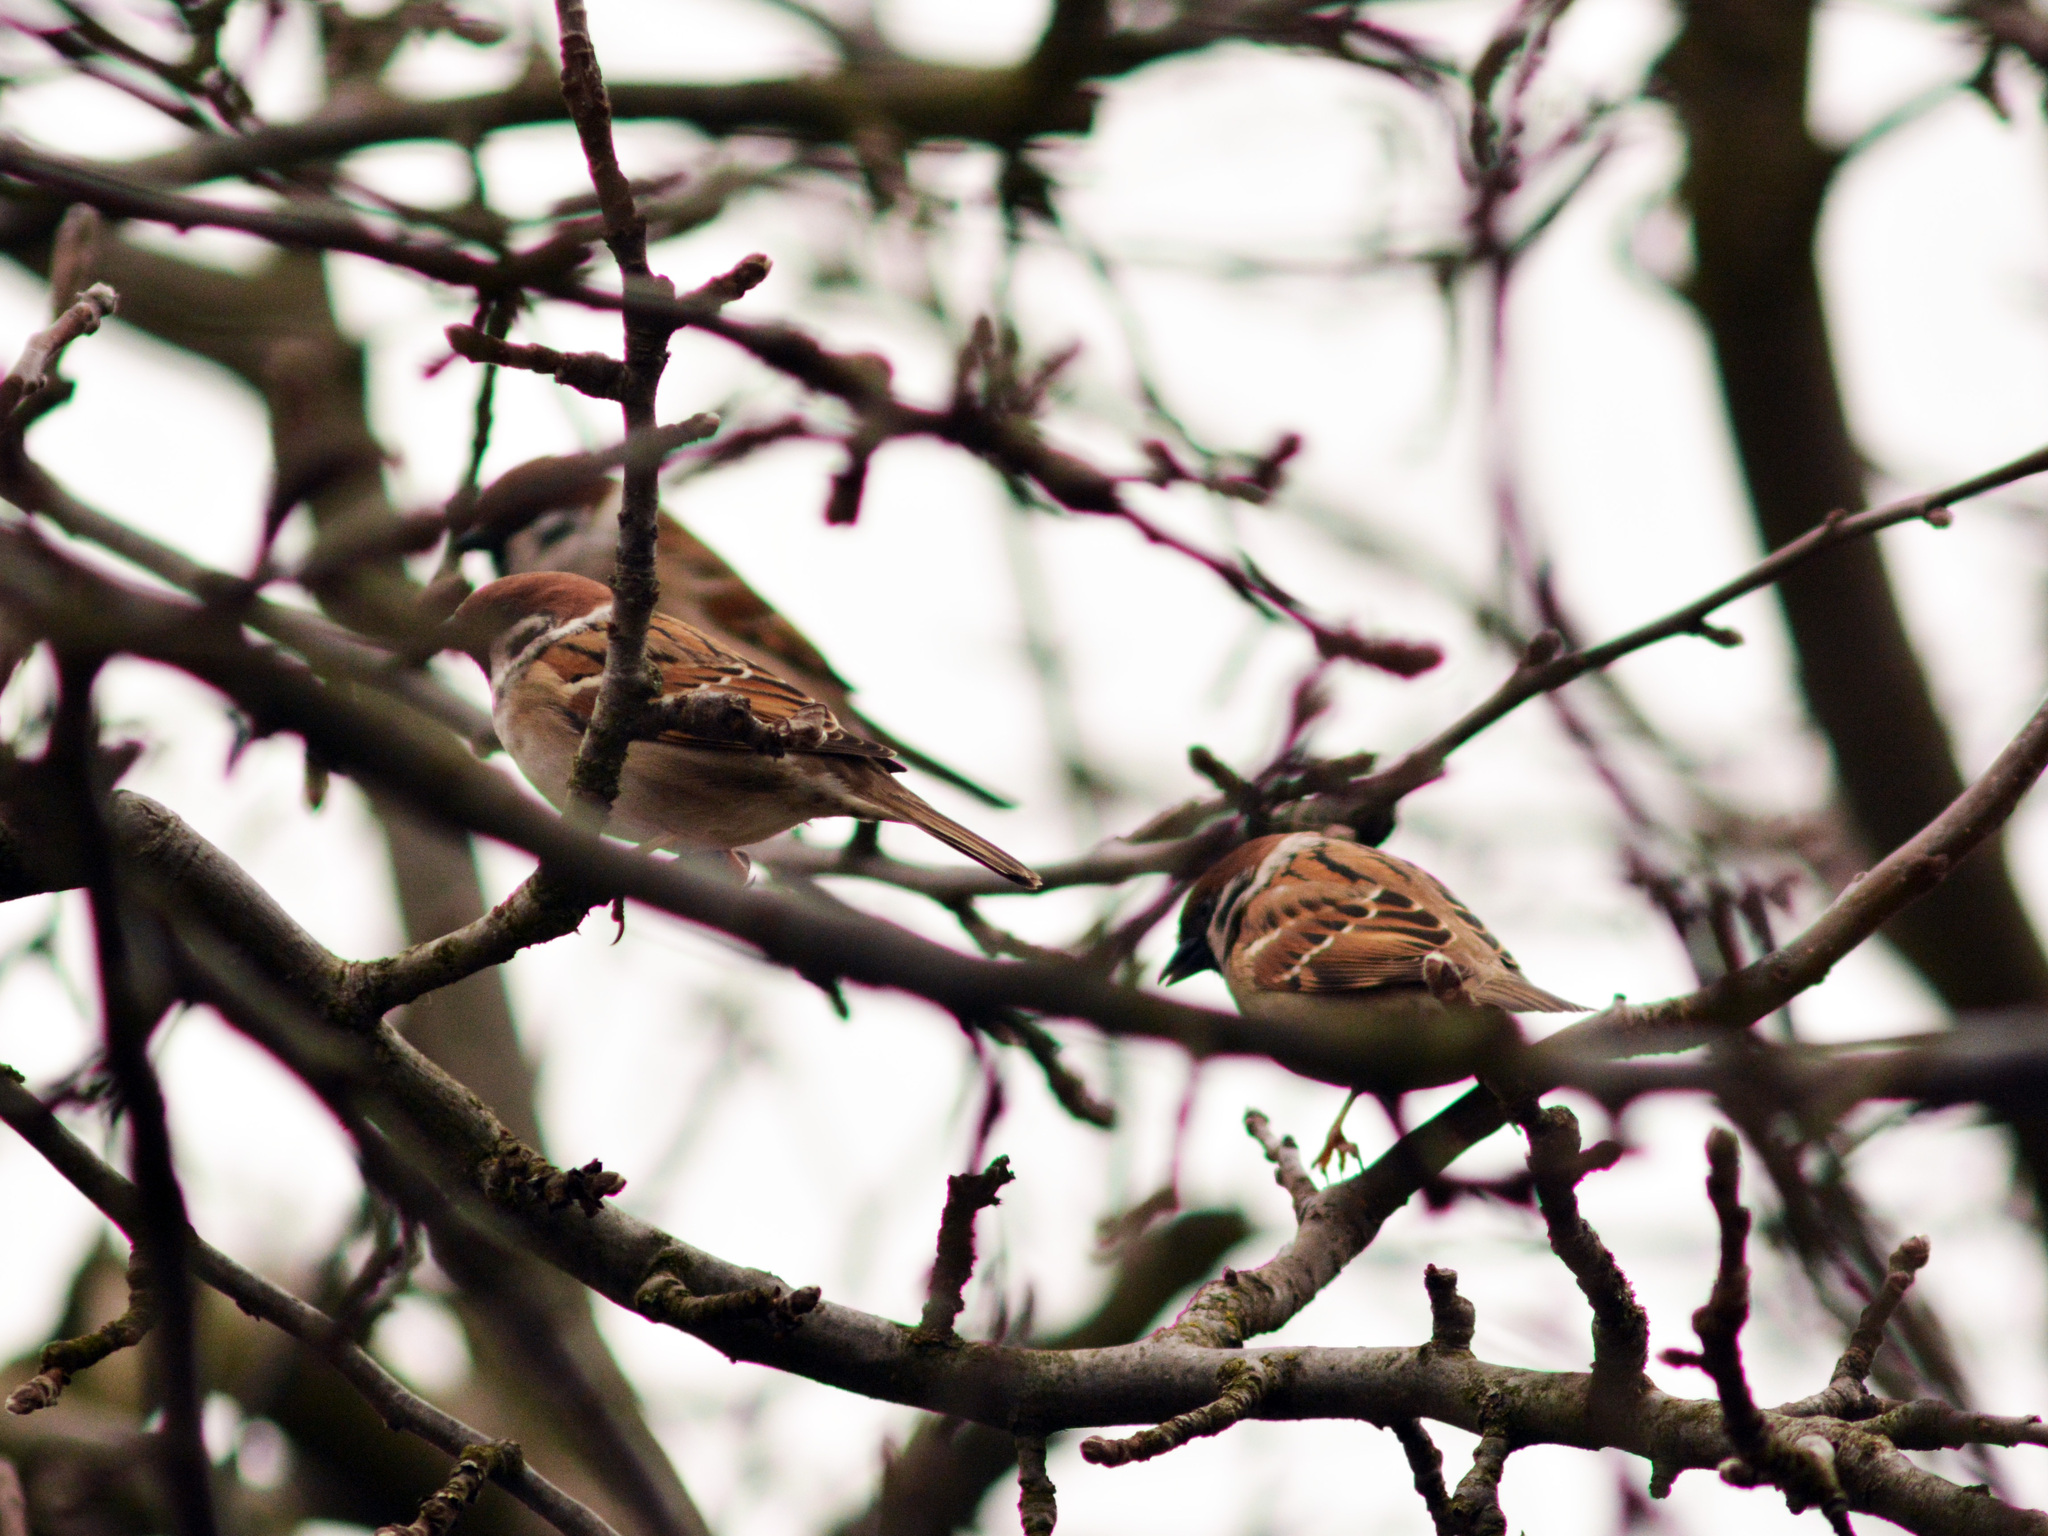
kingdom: Animalia
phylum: Chordata
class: Aves
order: Passeriformes
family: Passeridae
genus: Passer
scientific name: Passer montanus
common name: Eurasian tree sparrow
